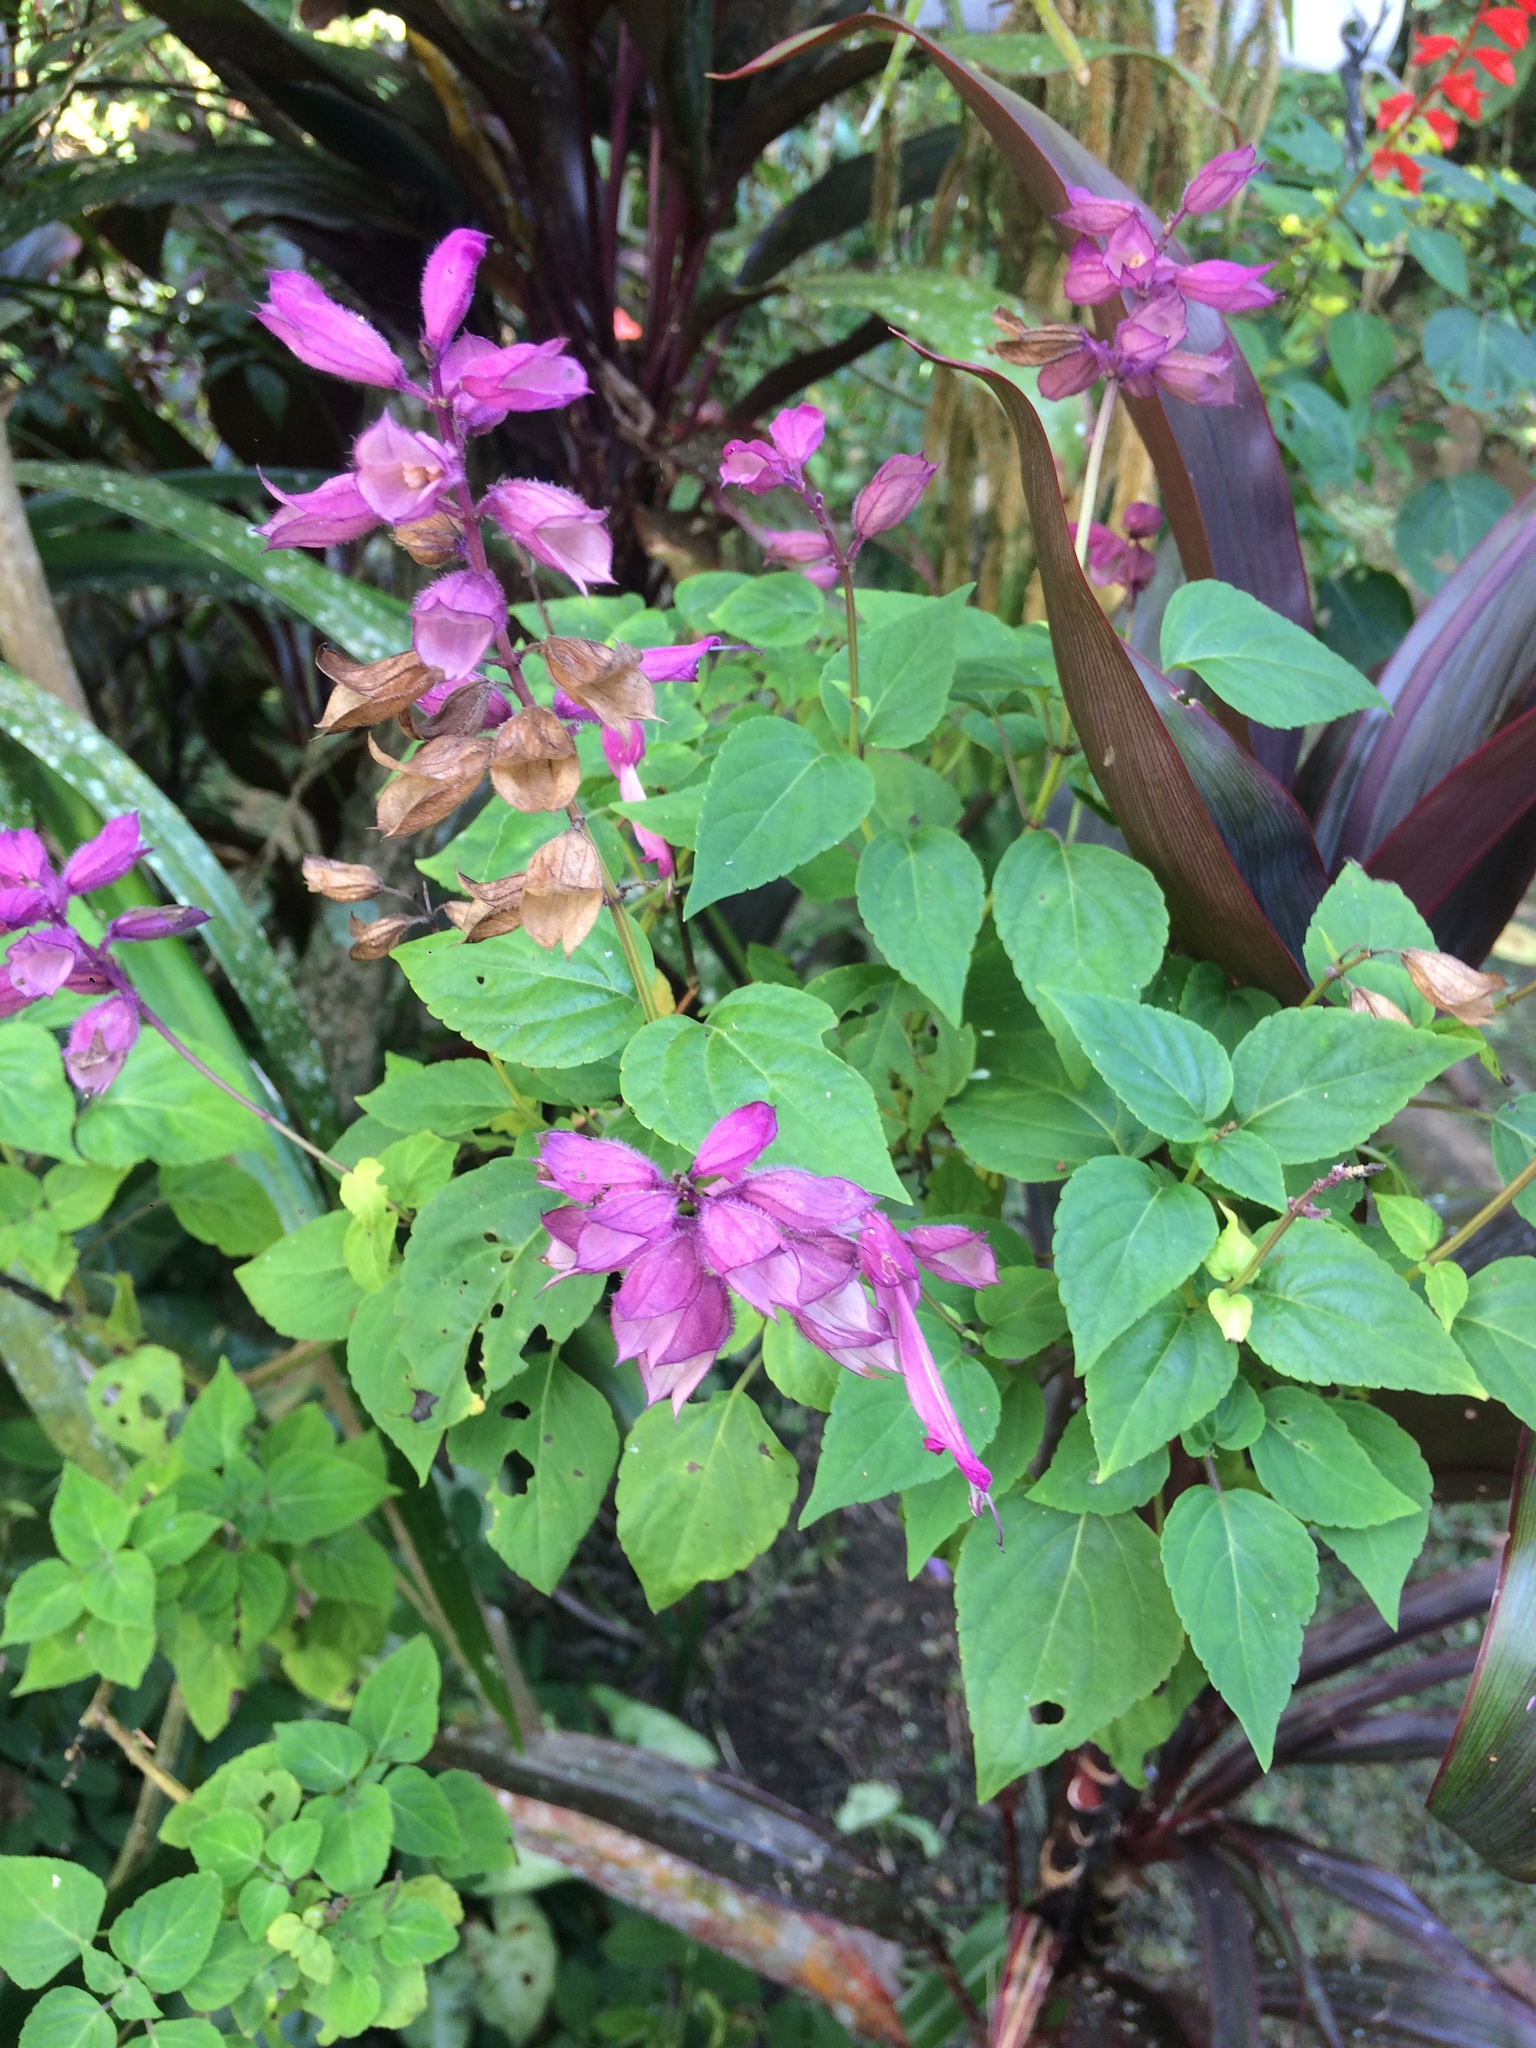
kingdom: Plantae
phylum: Tracheophyta
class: Magnoliopsida
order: Lamiales
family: Lamiaceae
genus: Salvia
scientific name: Salvia splendens
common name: Scarlet sage
